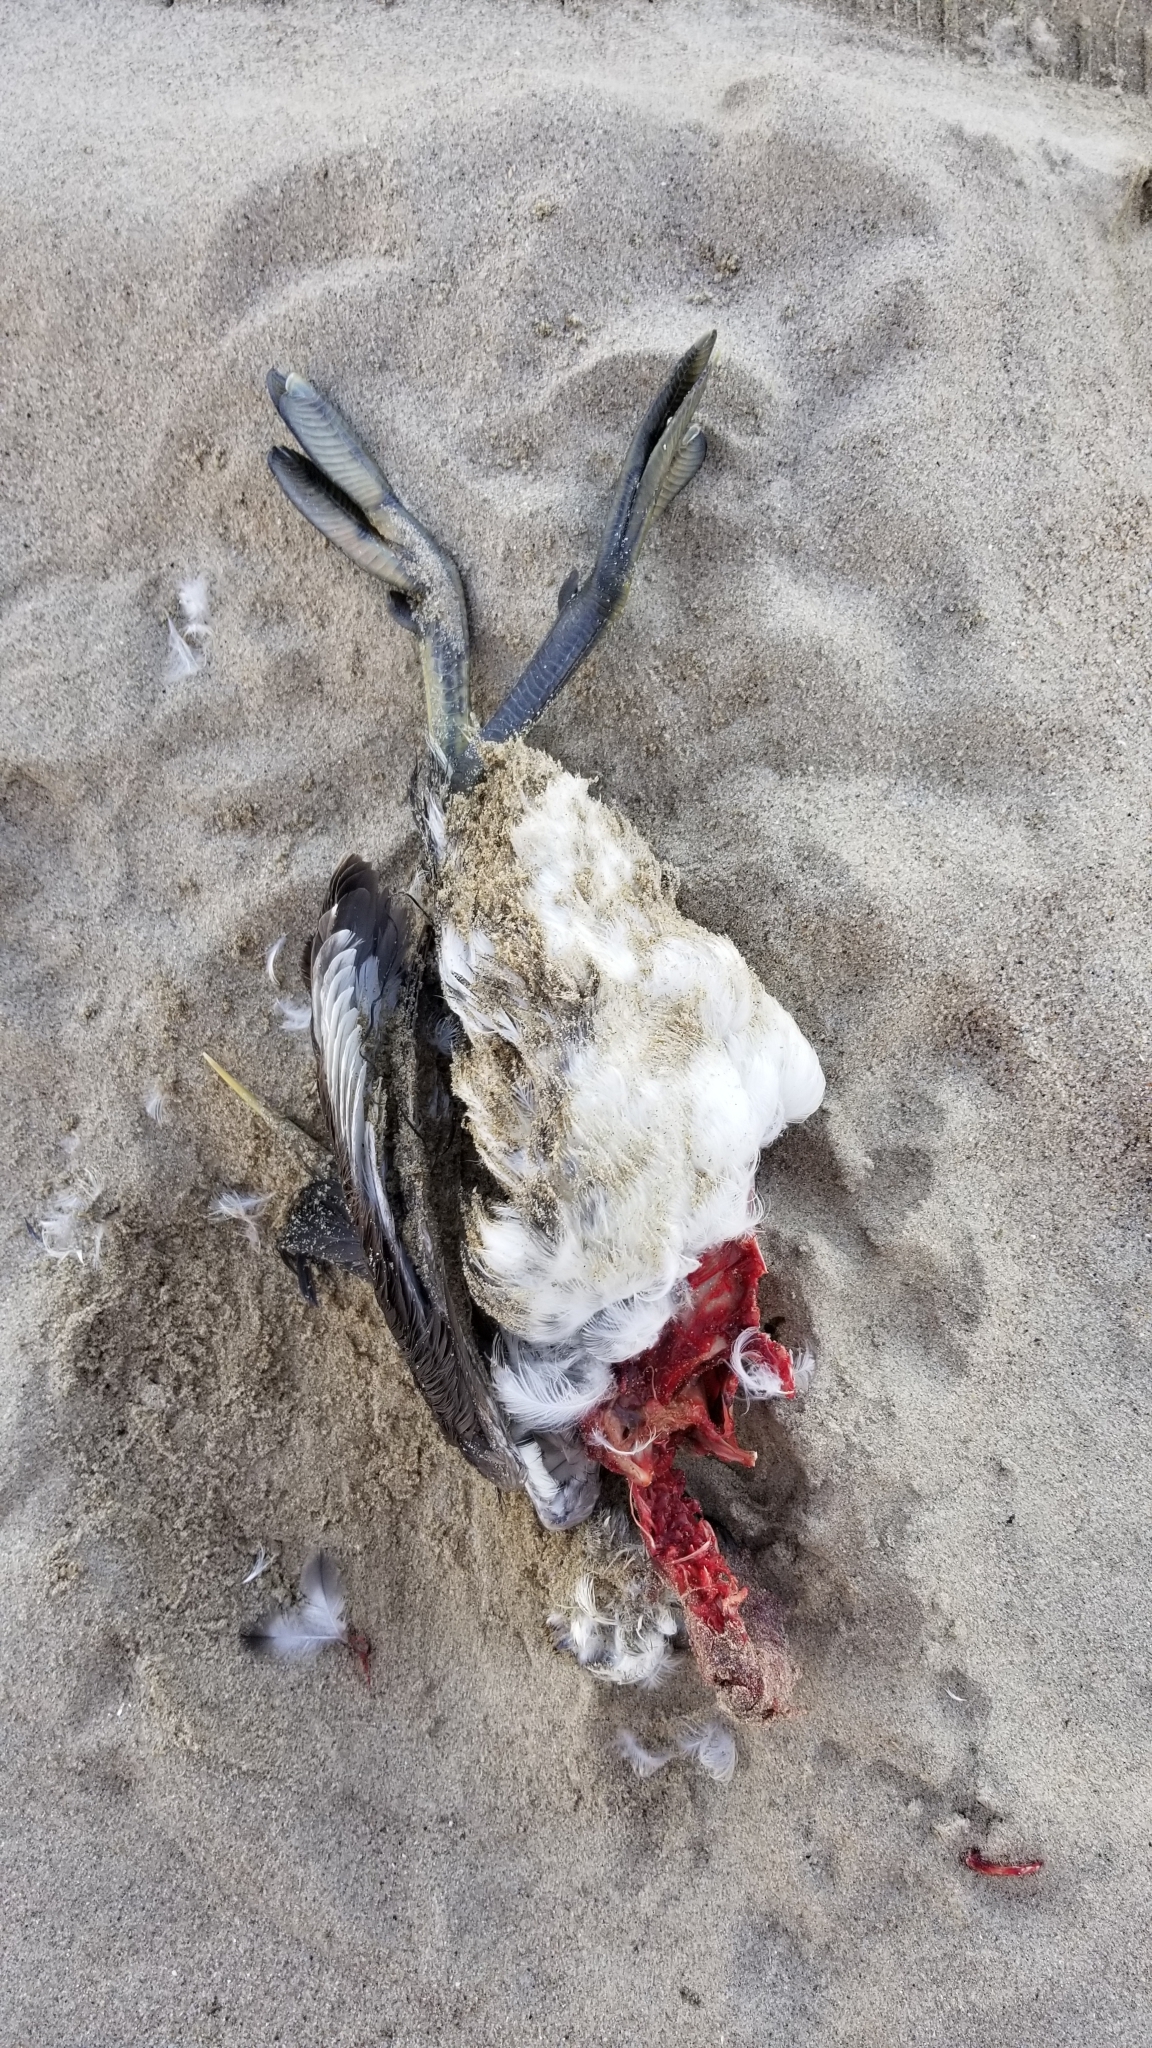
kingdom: Animalia
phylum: Chordata
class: Aves
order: Podicipediformes
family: Podicipedidae
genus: Aechmophorus
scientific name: Aechmophorus
